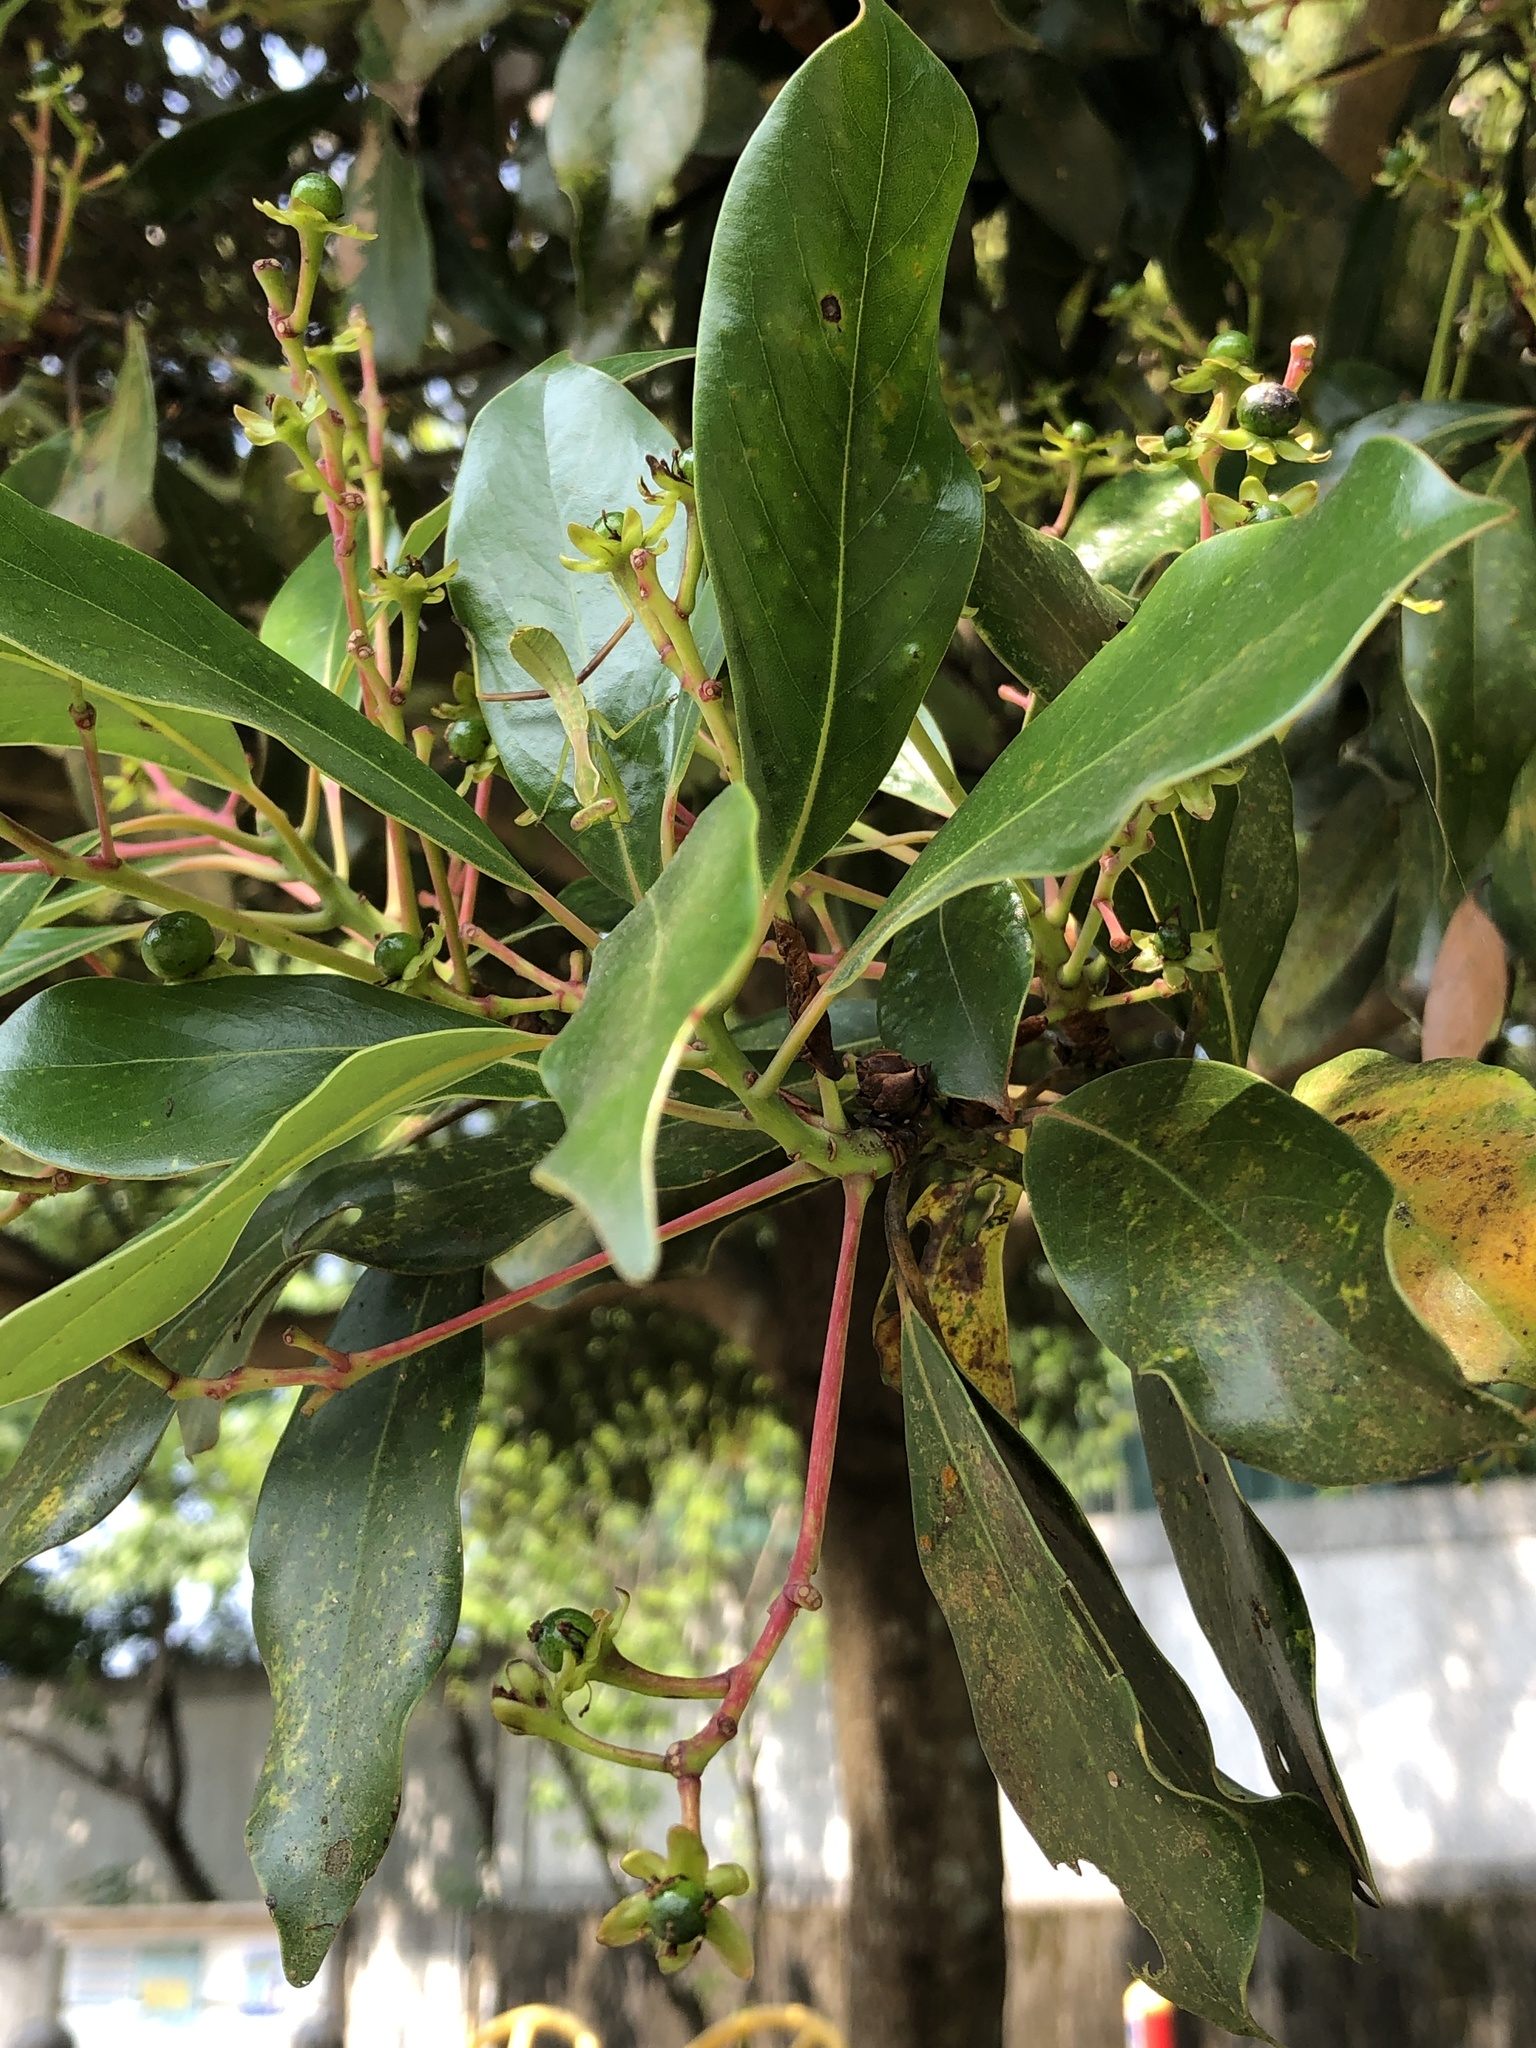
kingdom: Plantae
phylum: Tracheophyta
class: Magnoliopsida
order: Laurales
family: Lauraceae
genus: Machilus
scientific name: Machilus thunbergii
